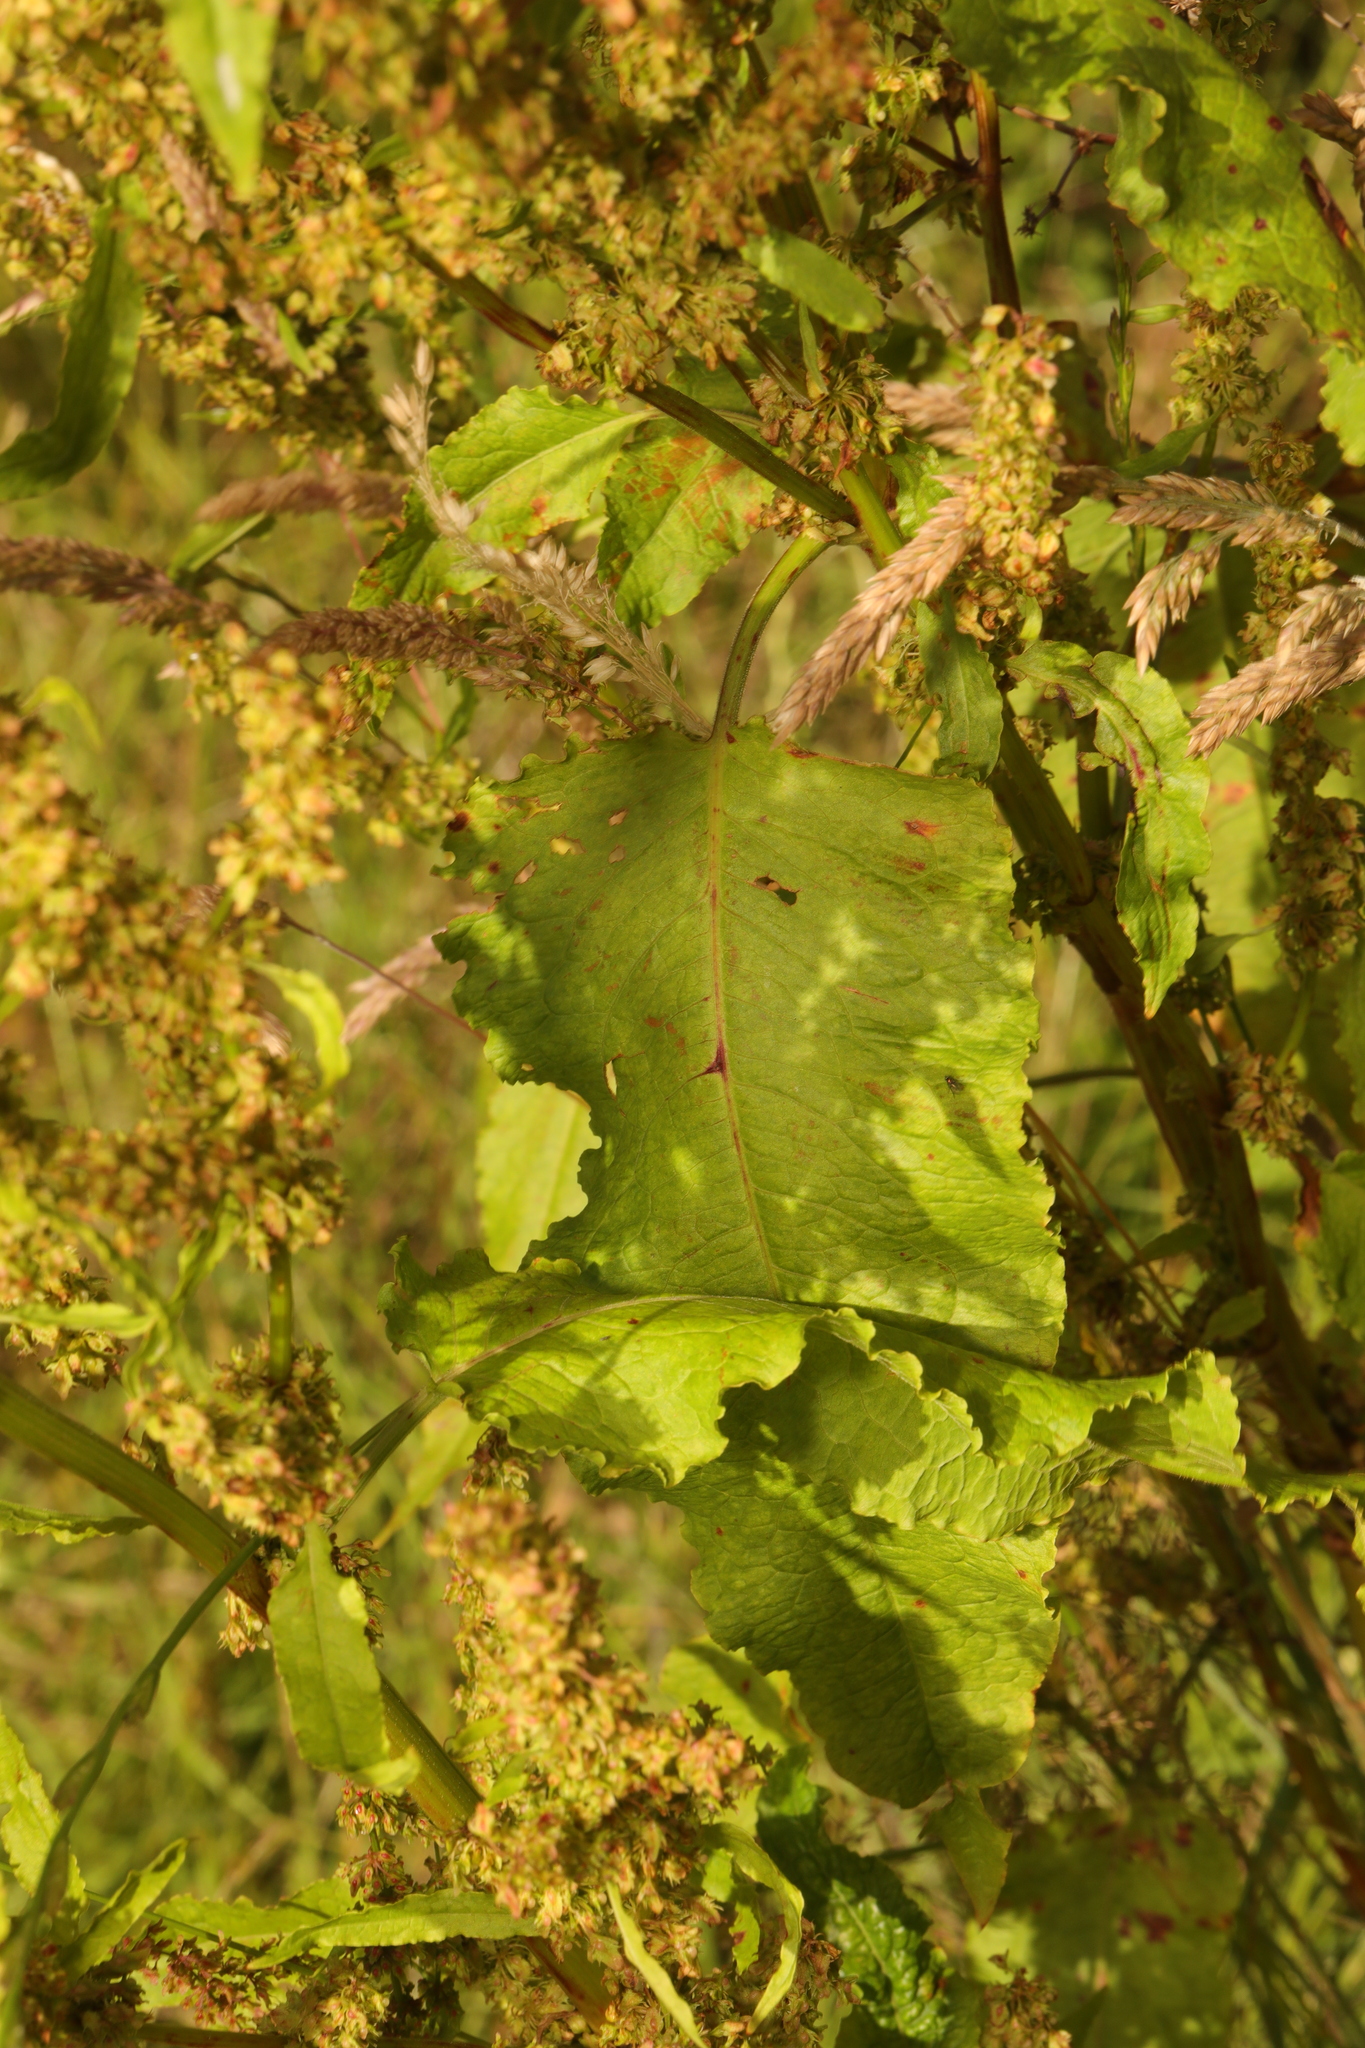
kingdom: Plantae
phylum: Tracheophyta
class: Magnoliopsida
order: Caryophyllales
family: Polygonaceae
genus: Rumex
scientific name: Rumex obtusifolius
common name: Bitter dock
